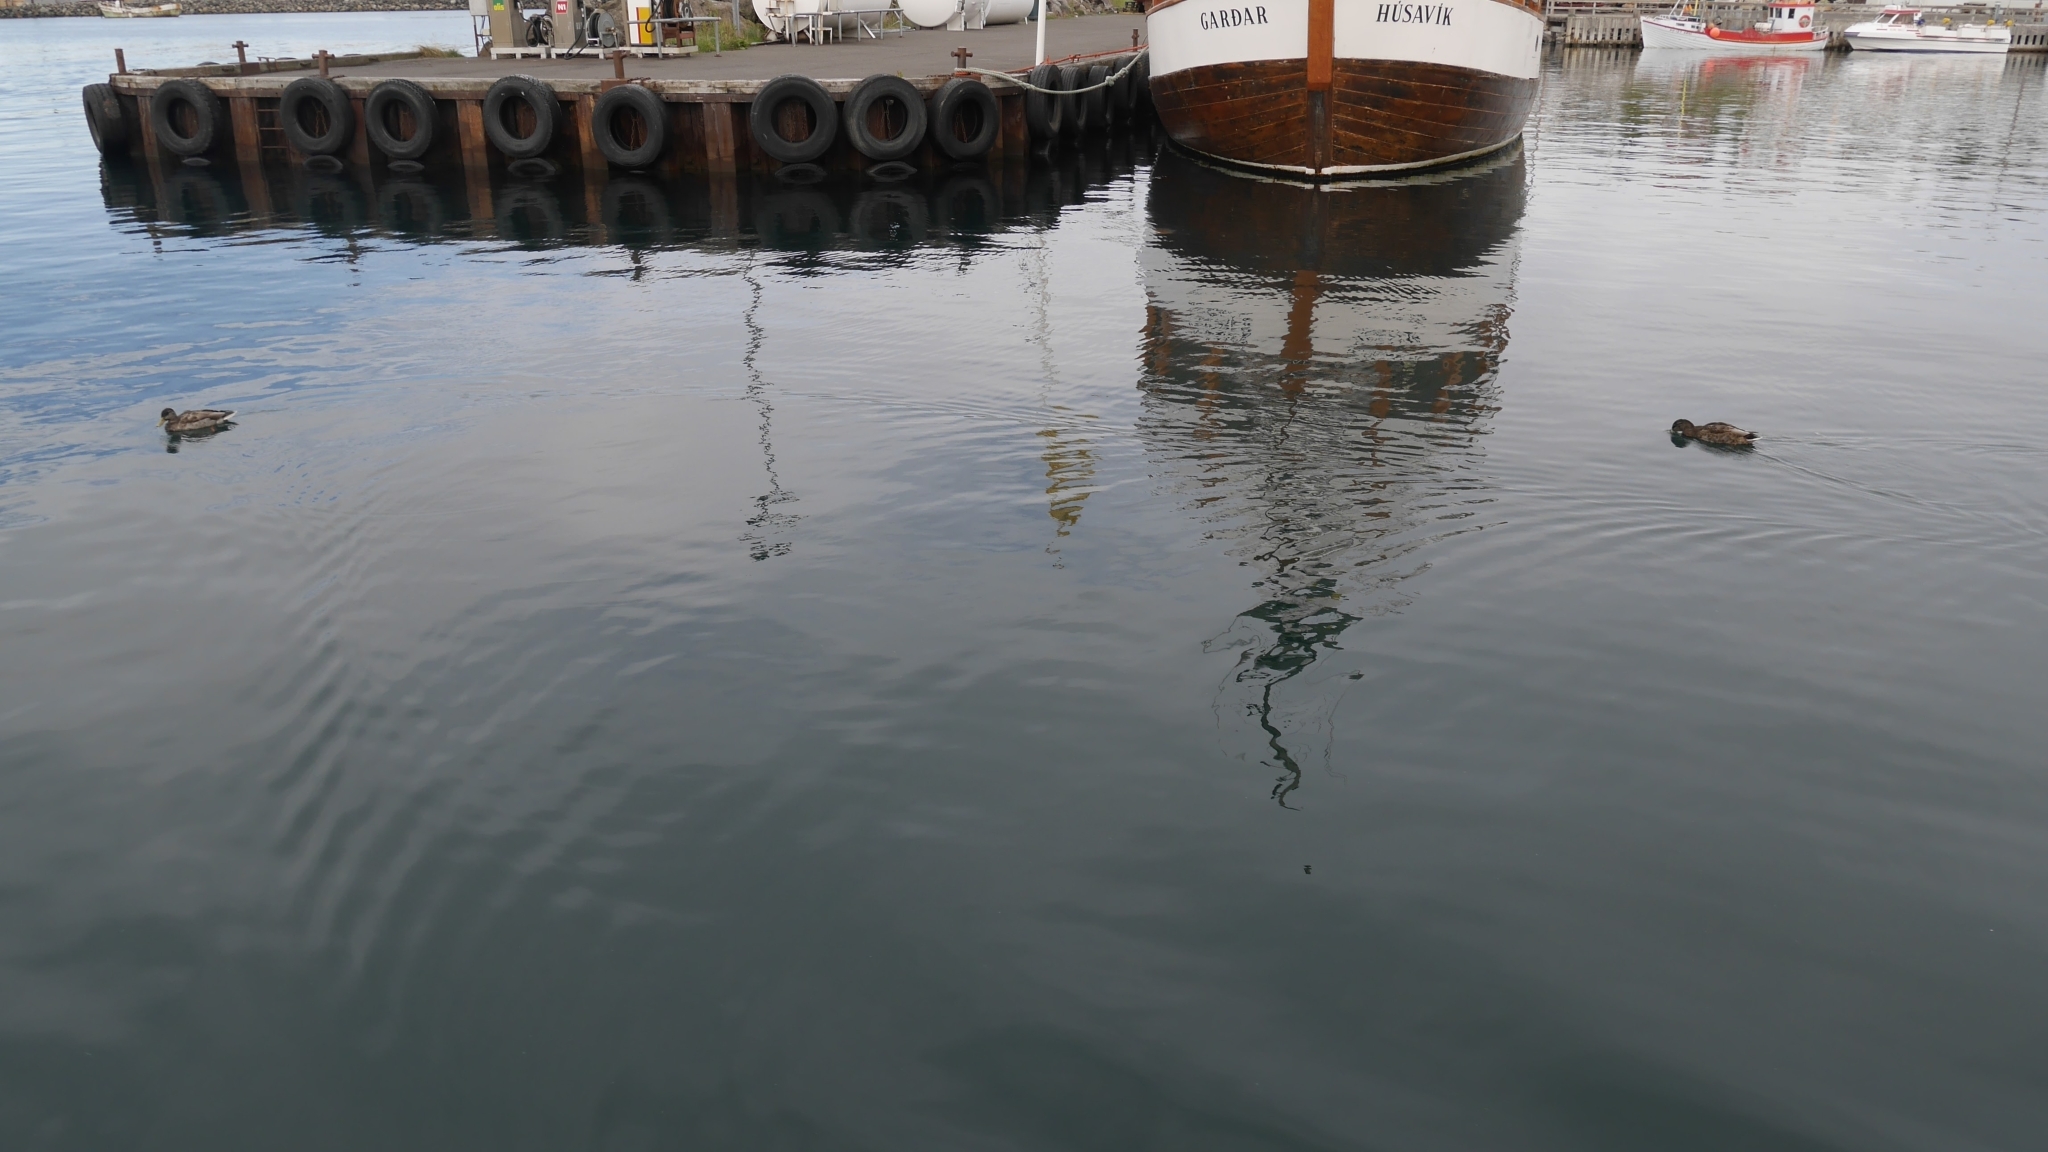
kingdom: Animalia
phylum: Chordata
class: Aves
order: Anseriformes
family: Anatidae
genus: Anas
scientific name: Anas platyrhynchos
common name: Mallard
